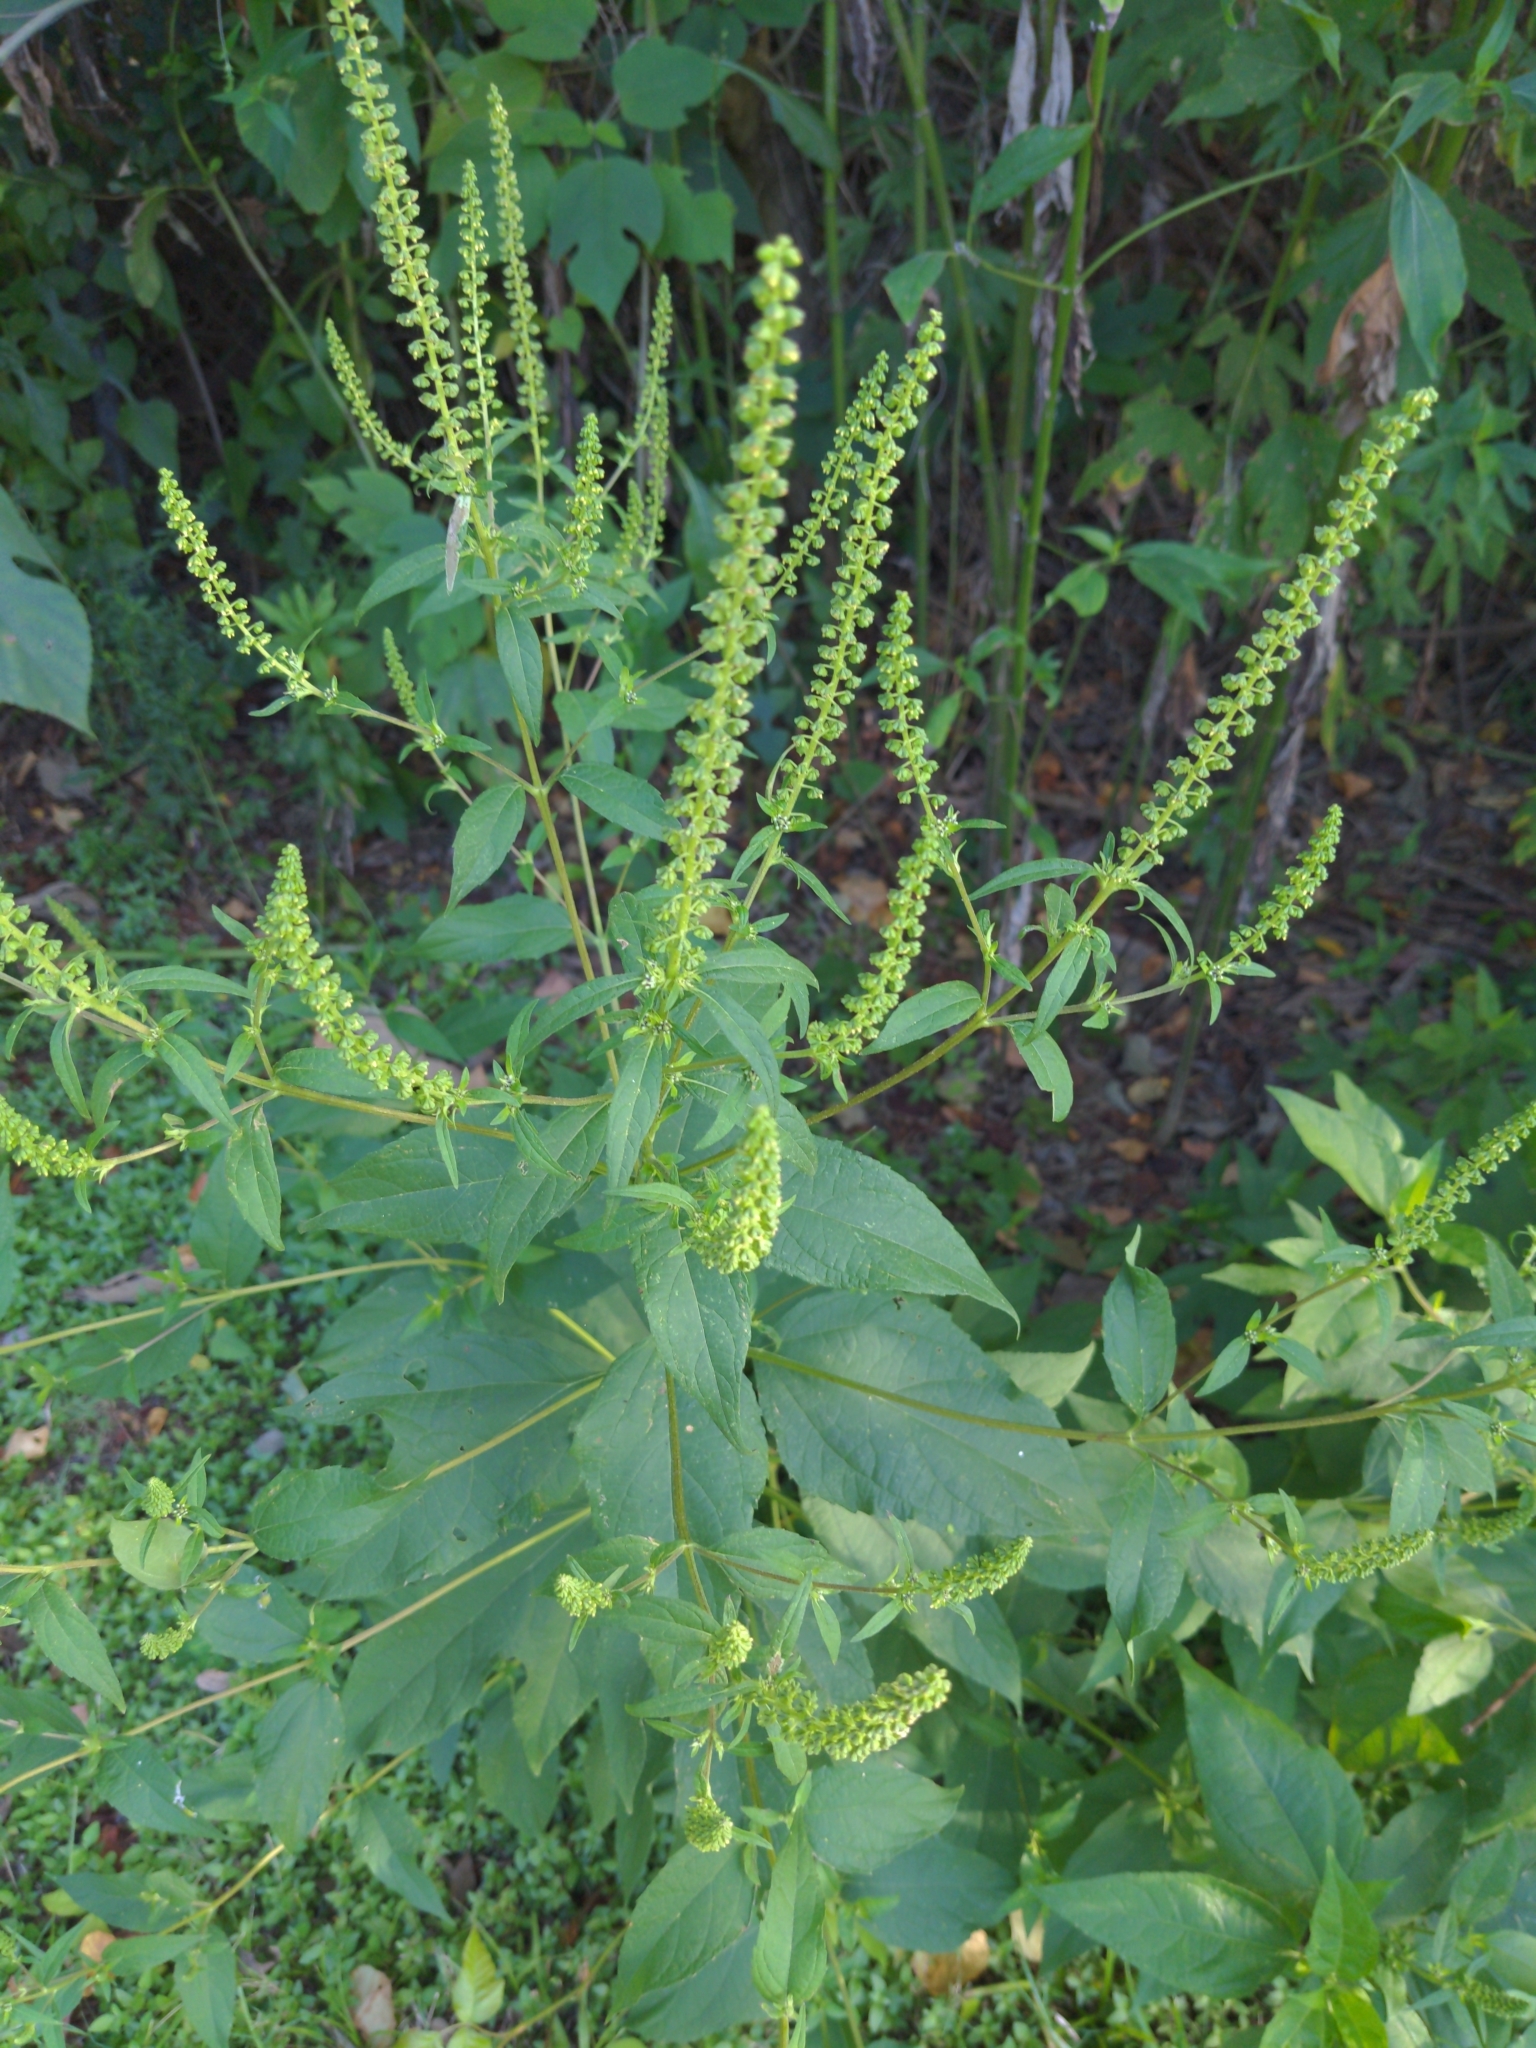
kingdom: Plantae
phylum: Tracheophyta
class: Magnoliopsida
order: Asterales
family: Asteraceae
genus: Ambrosia
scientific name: Ambrosia trifida
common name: Giant ragweed
